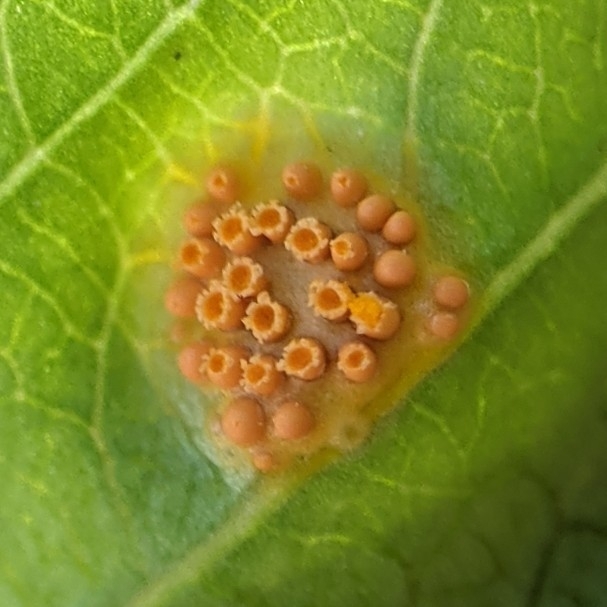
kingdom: Fungi
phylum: Basidiomycota
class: Pucciniomycetes
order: Pucciniales
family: Pucciniaceae
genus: Puccinia
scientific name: Puccinia coronata
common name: Crown rust
